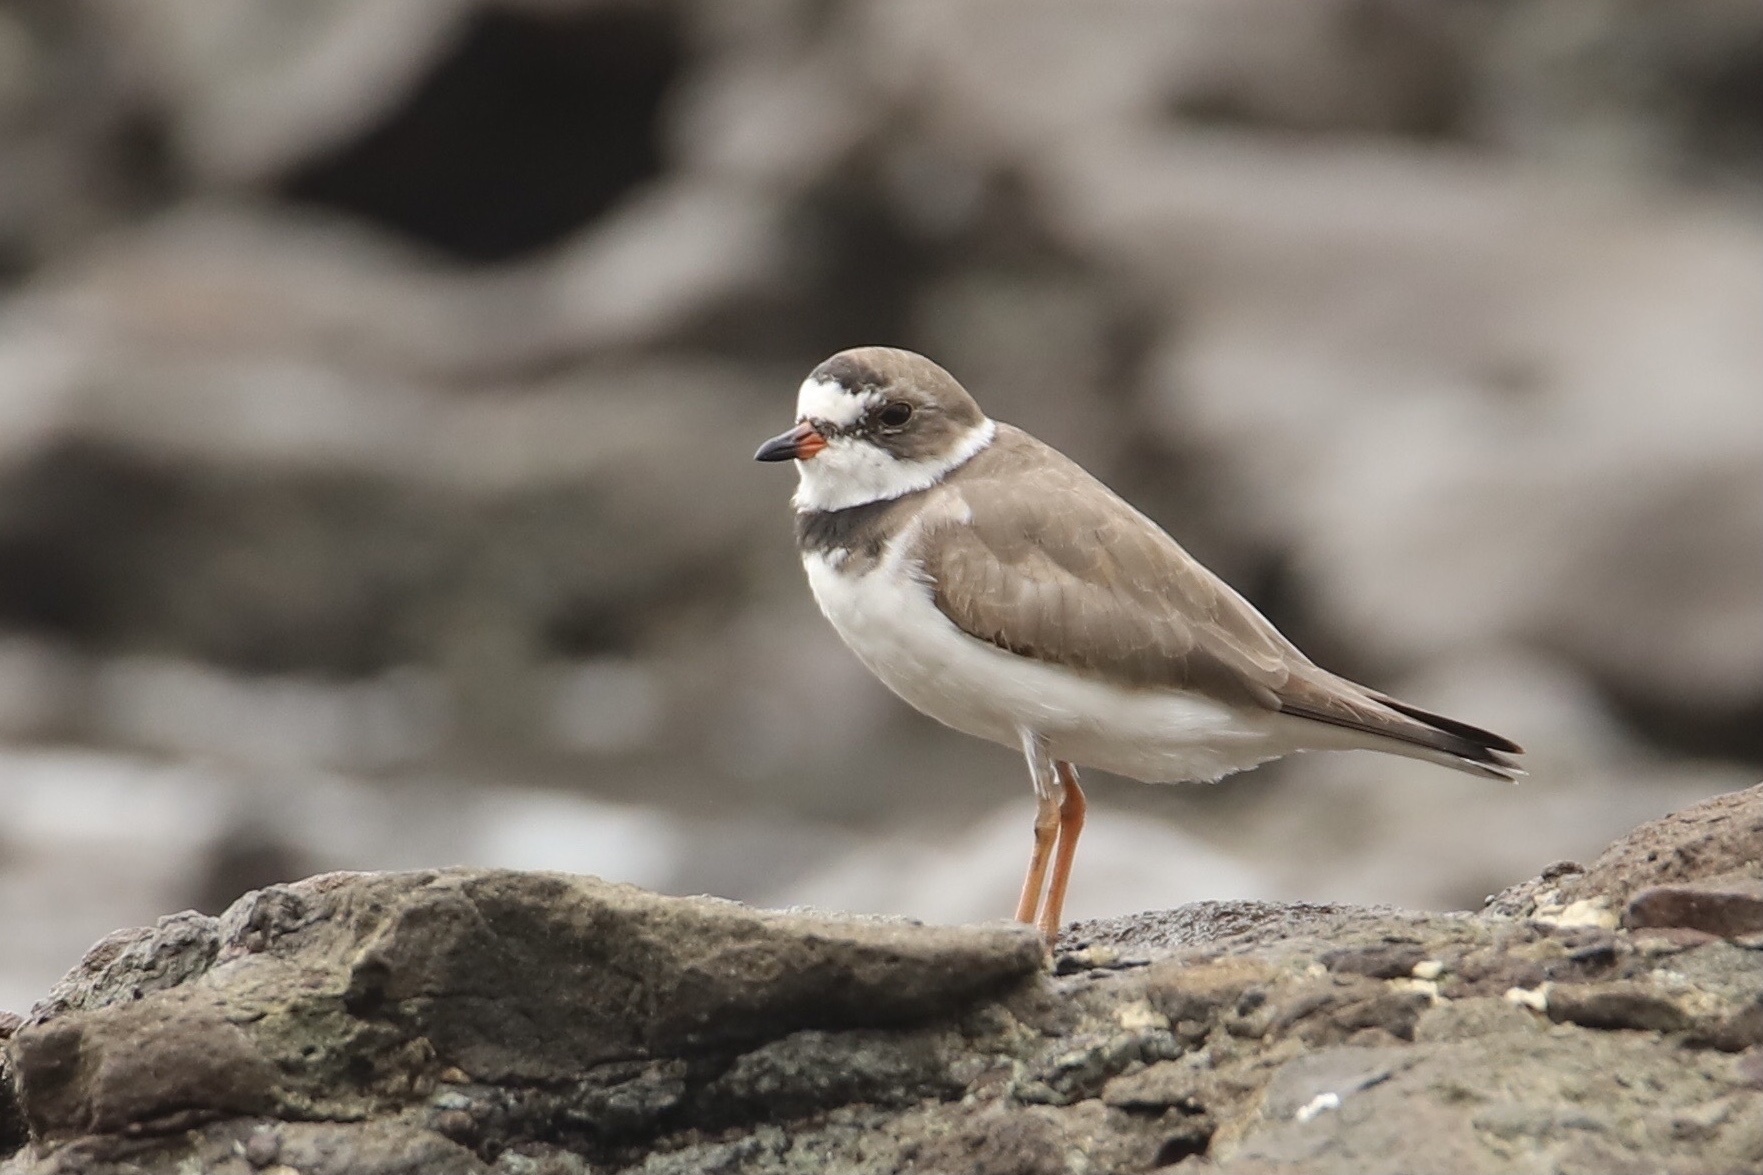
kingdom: Animalia
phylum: Chordata
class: Aves
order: Charadriiformes
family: Charadriidae
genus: Charadrius
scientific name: Charadrius semipalmatus
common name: Semipalmated plover
